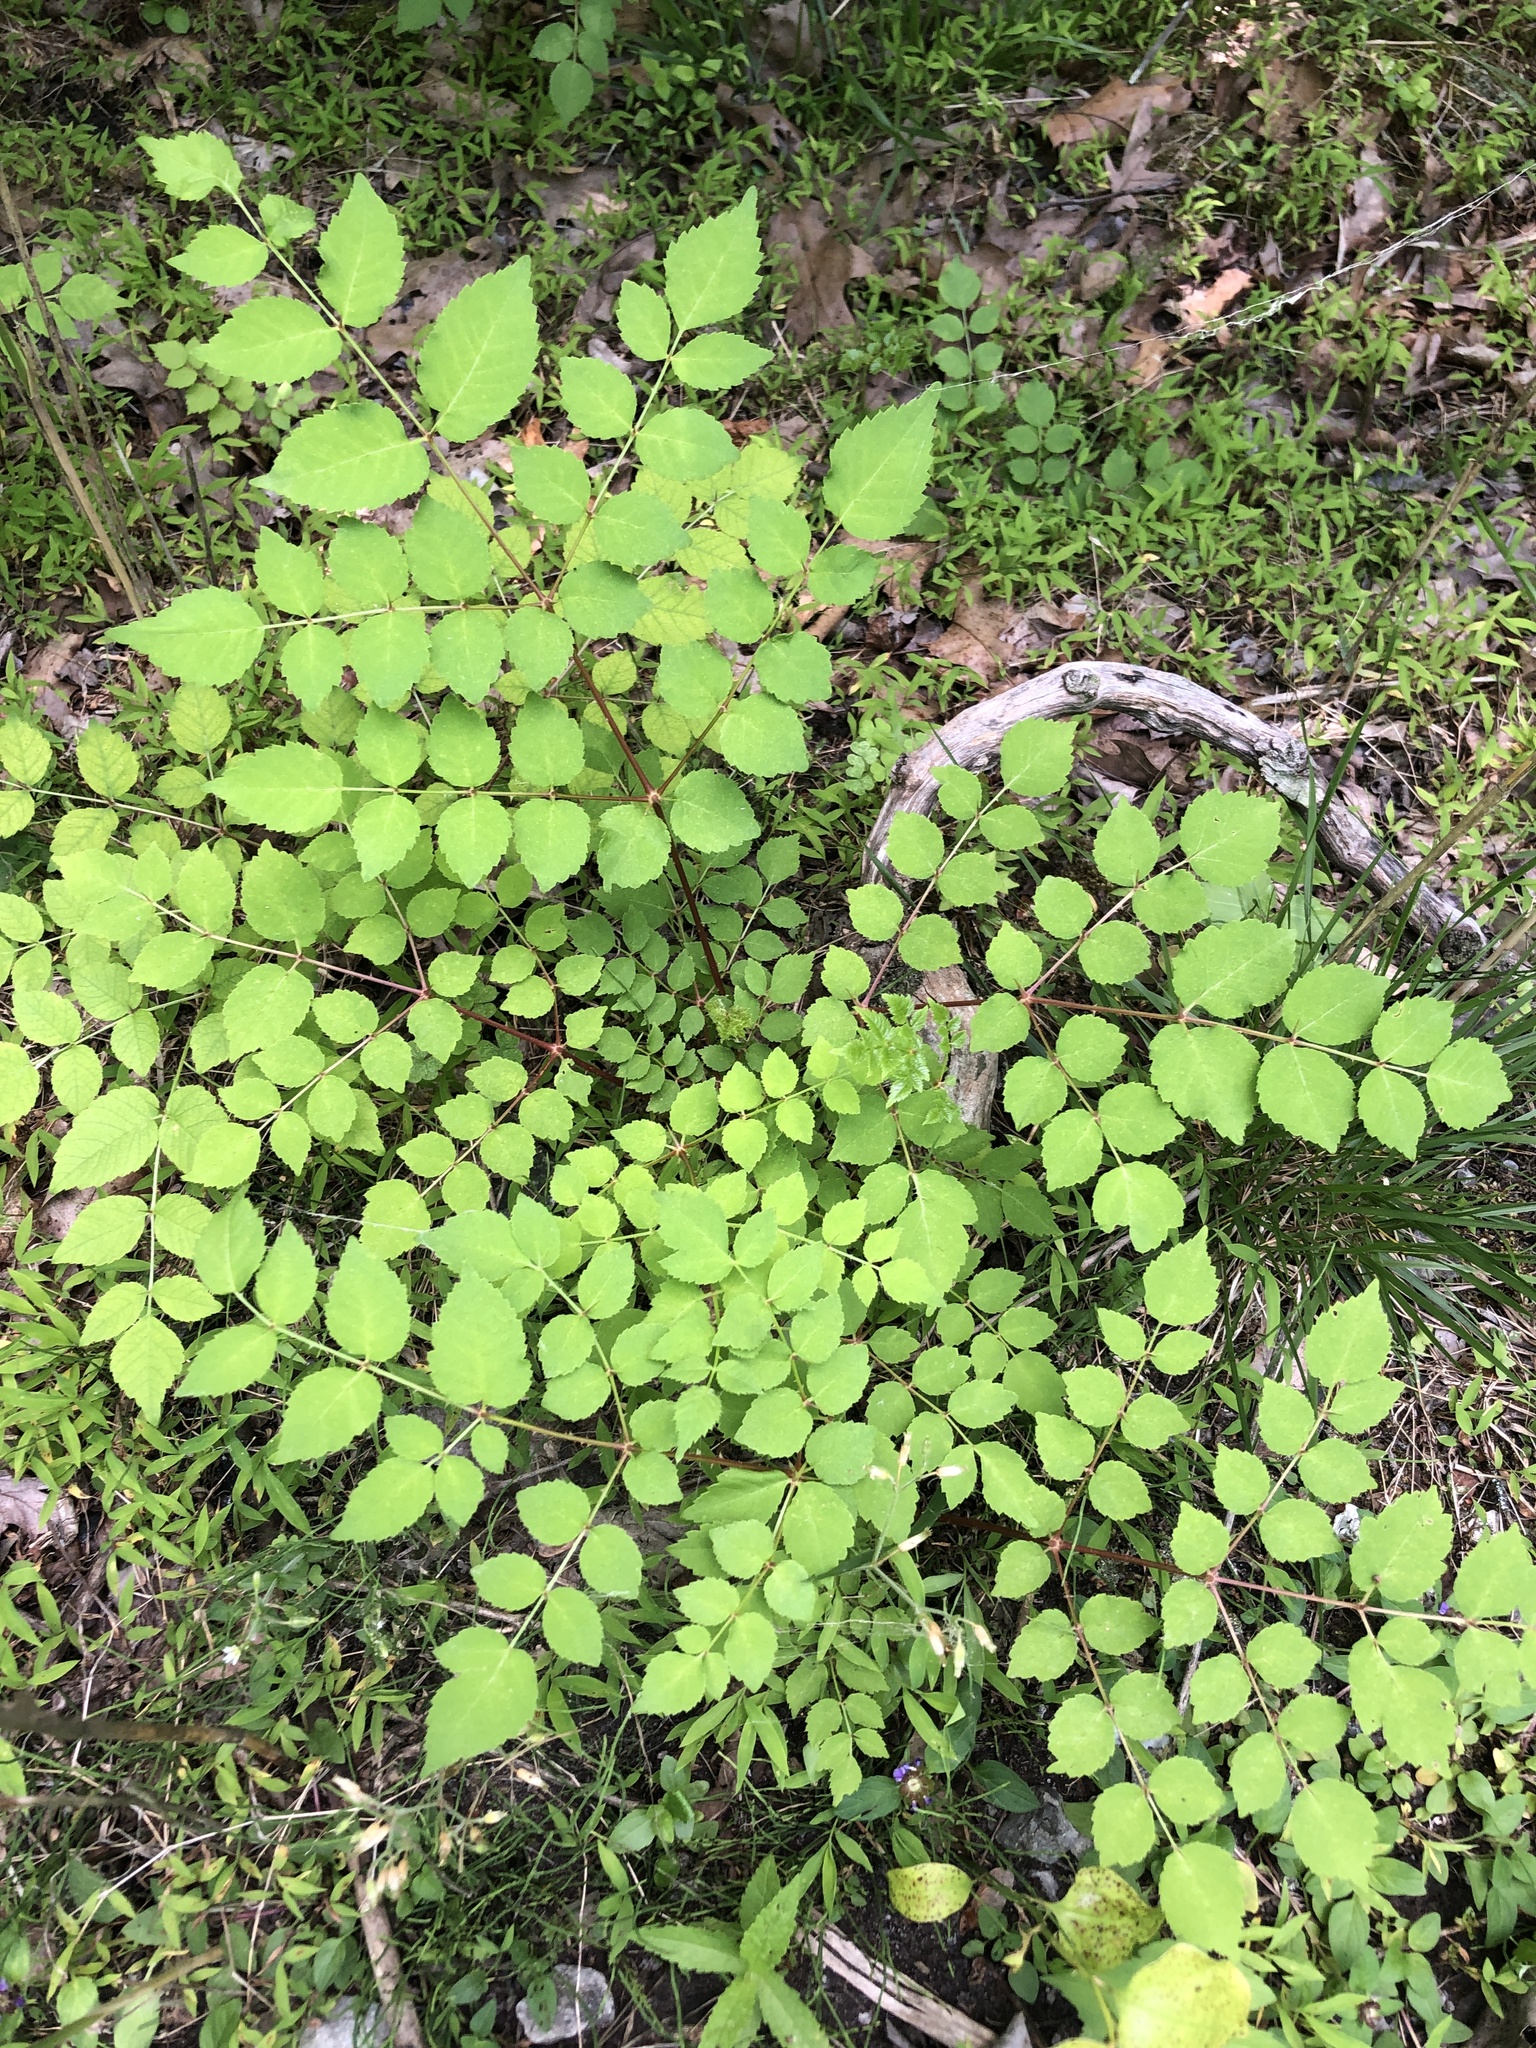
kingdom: Plantae
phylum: Tracheophyta
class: Magnoliopsida
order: Apiales
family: Araliaceae
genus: Aralia
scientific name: Aralia elata
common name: Japanese angelica-tree
